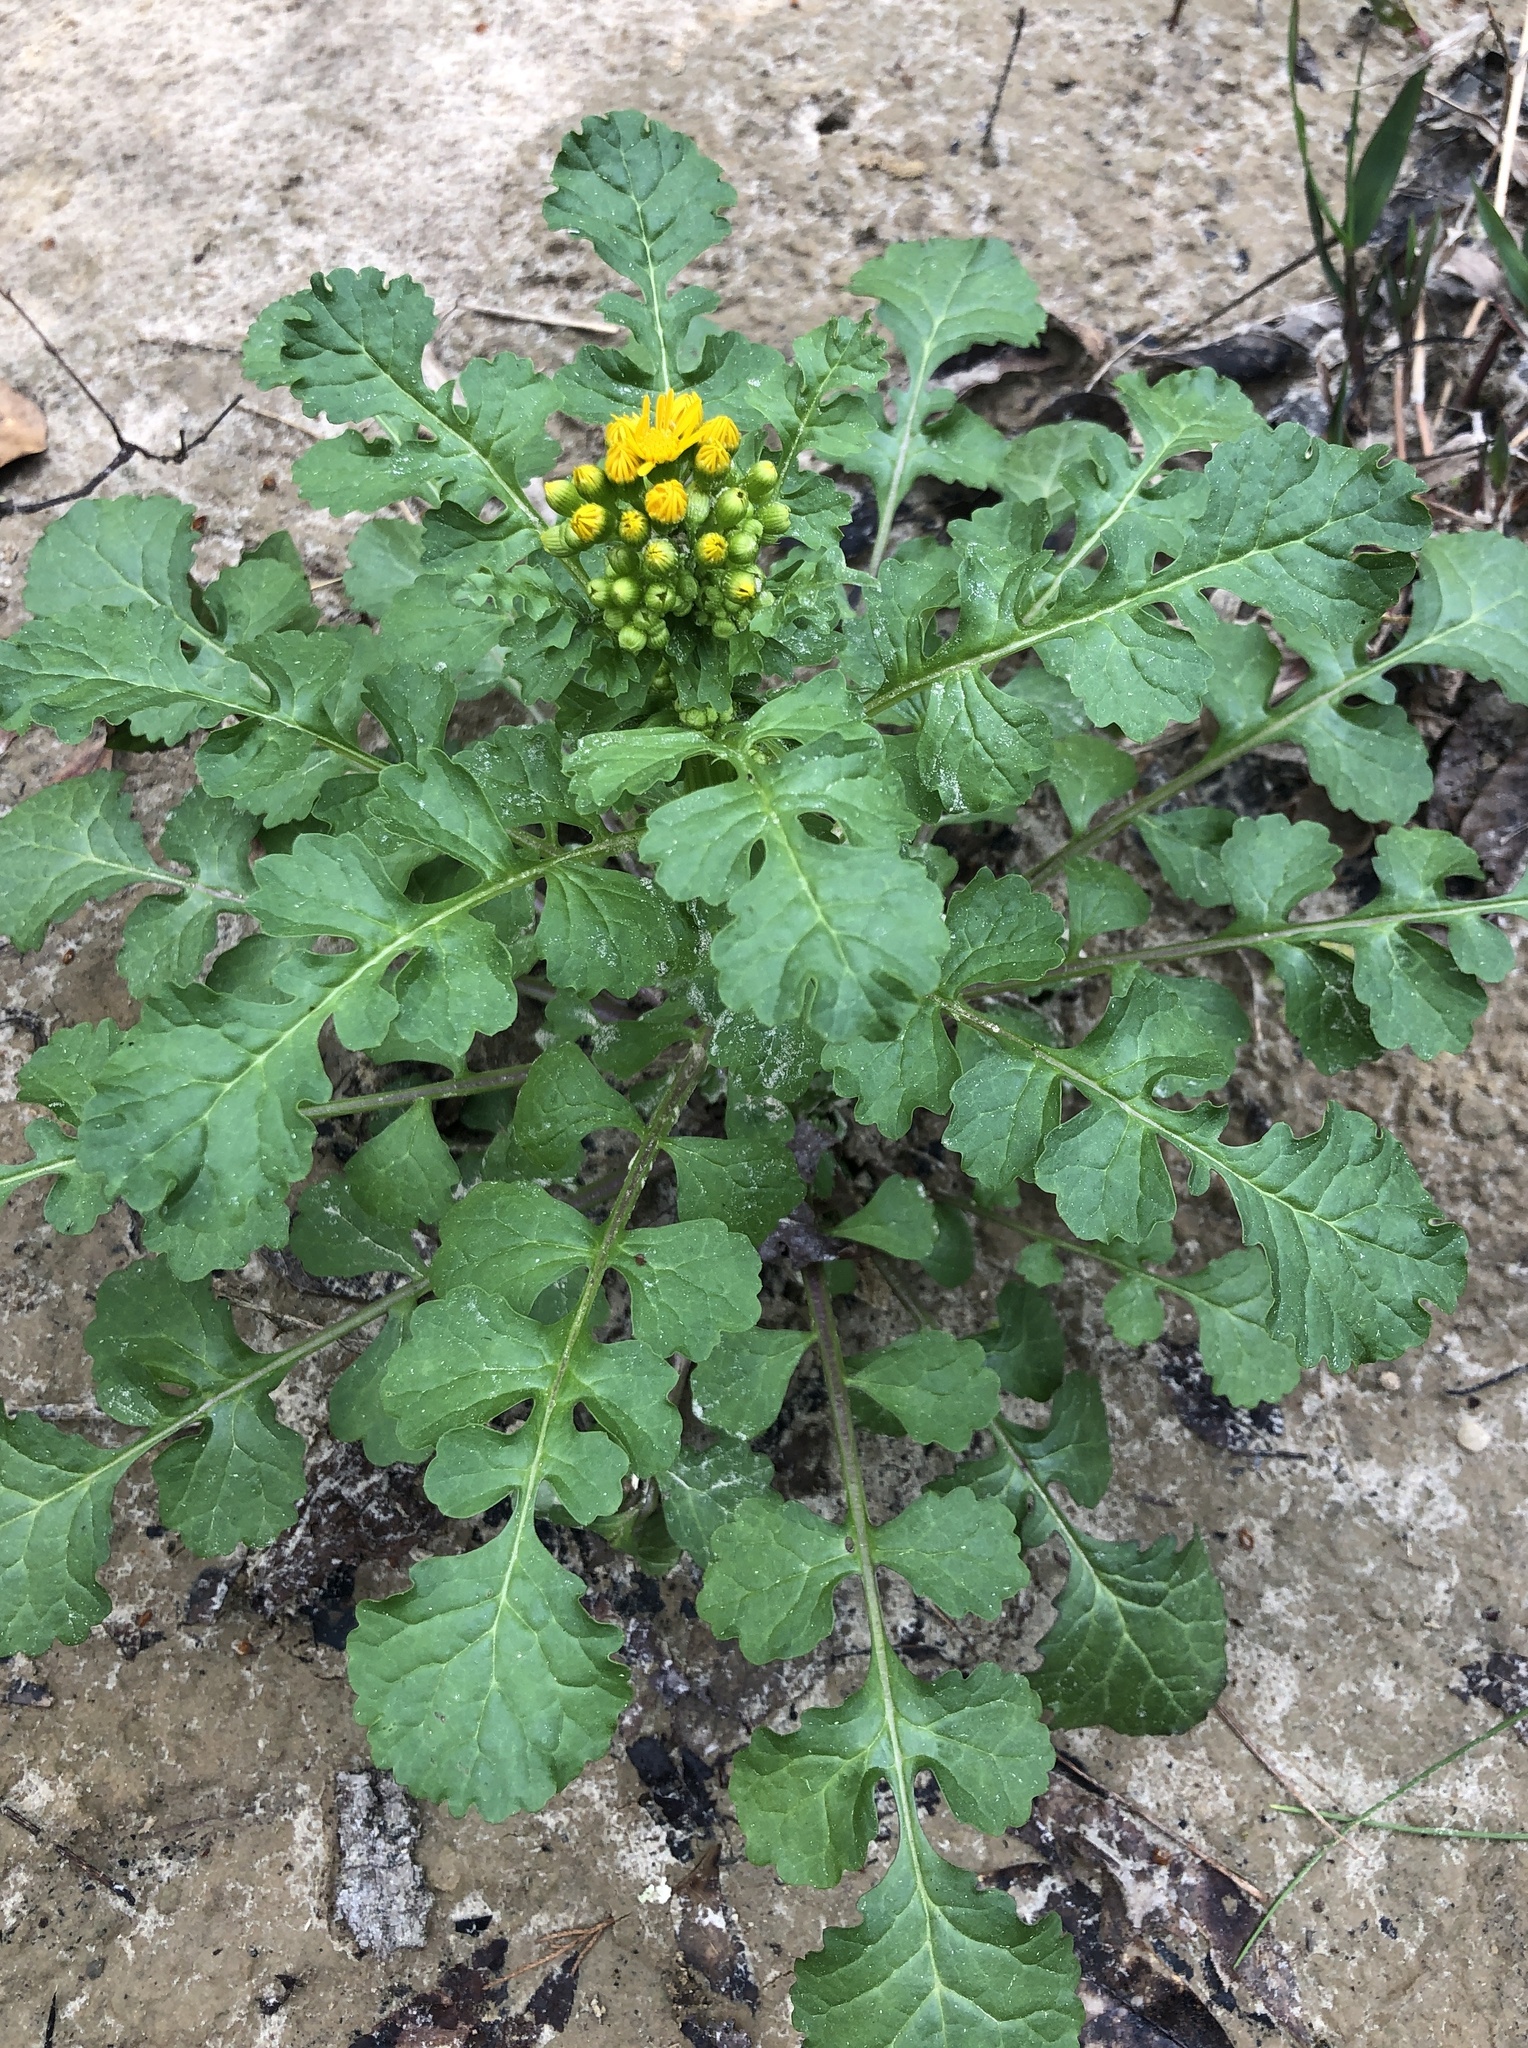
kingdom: Plantae
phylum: Tracheophyta
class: Magnoliopsida
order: Asterales
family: Asteraceae
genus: Packera
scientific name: Packera glabella
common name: Butterweed
